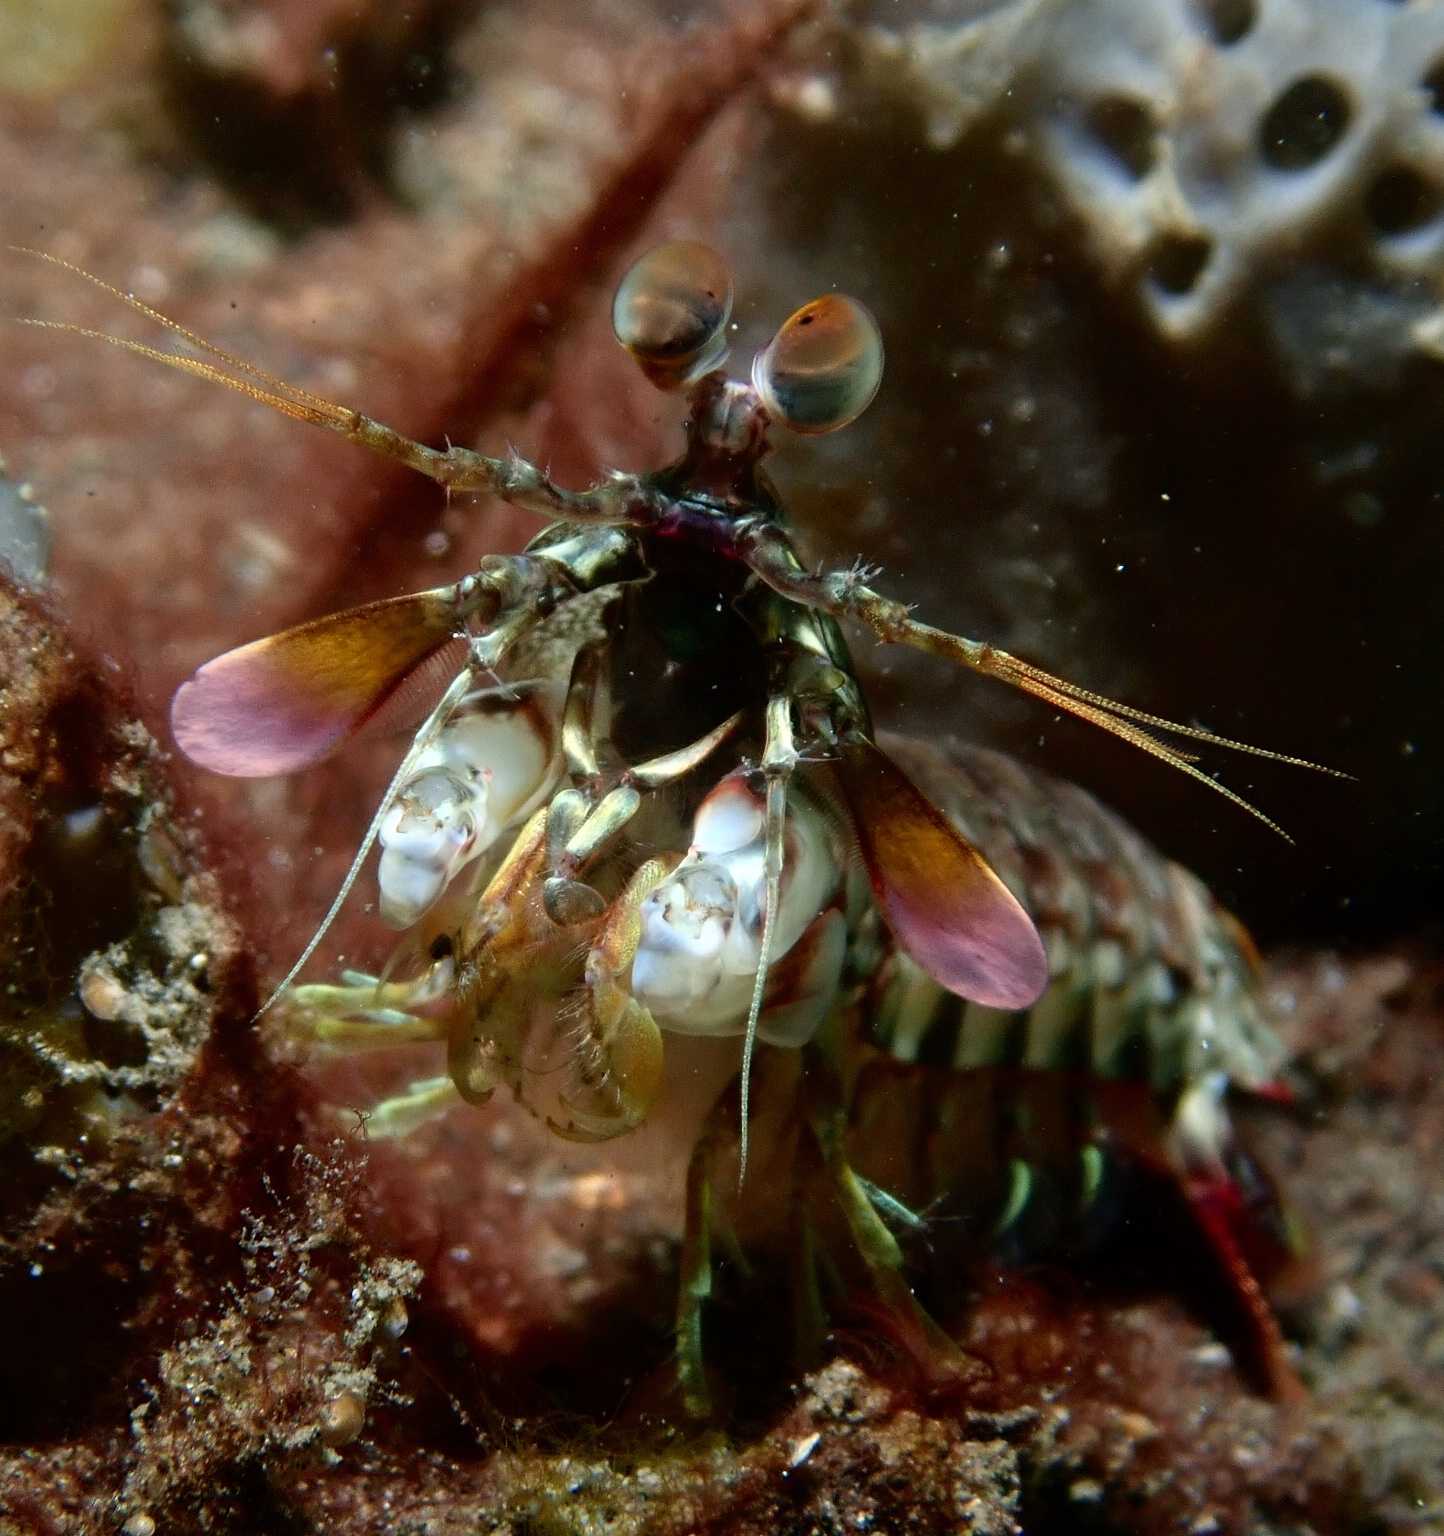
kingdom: Animalia
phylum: Arthropoda
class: Malacostraca
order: Stomatopoda
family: Odontodactylidae
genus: Odontodactylus
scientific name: Odontodactylus latirostris
